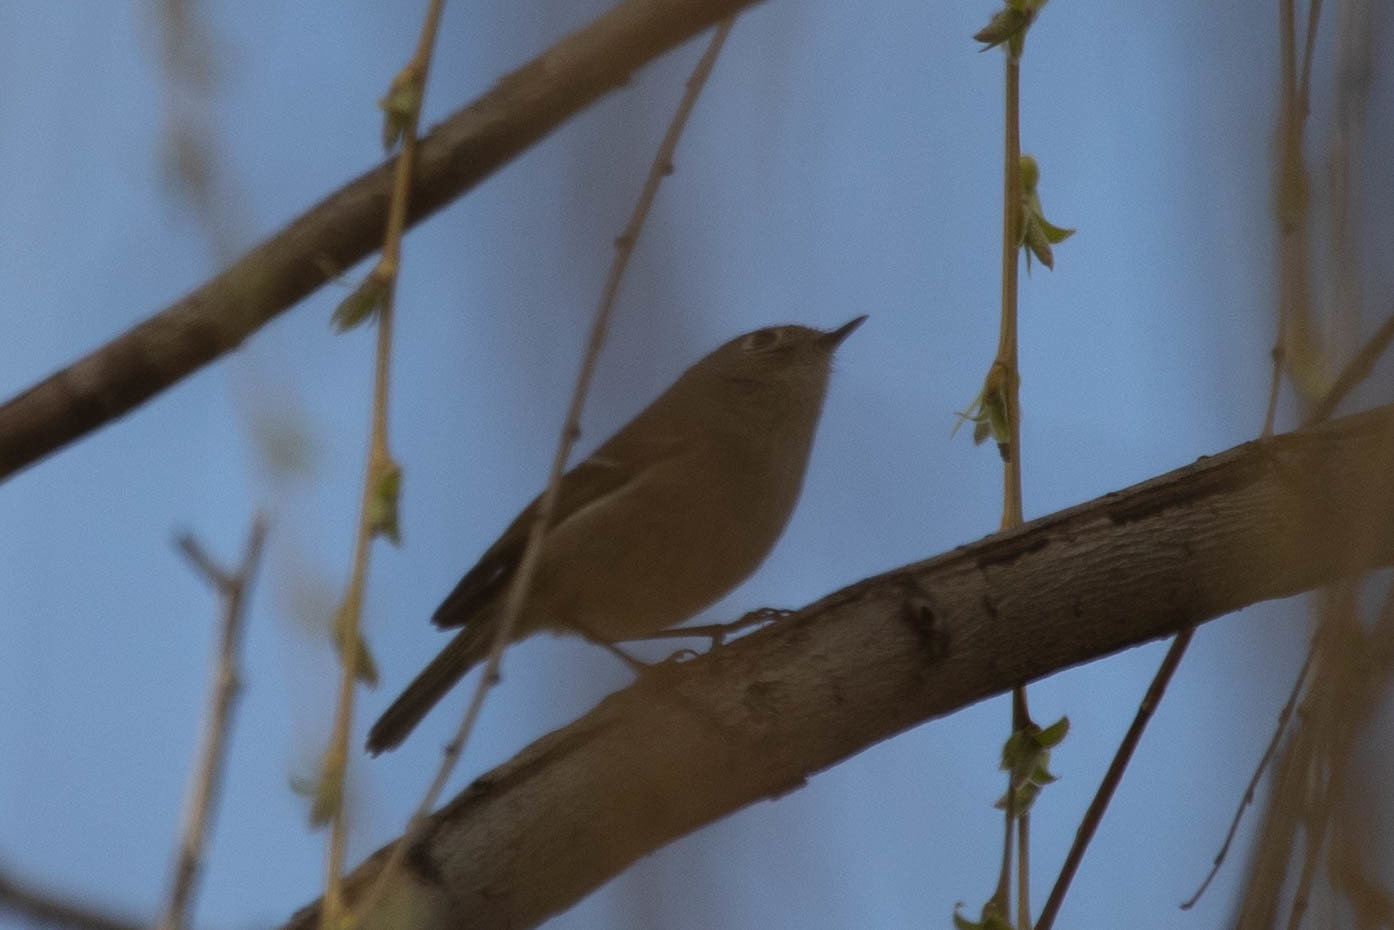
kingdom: Animalia
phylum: Chordata
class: Aves
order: Passeriformes
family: Regulidae
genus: Regulus
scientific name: Regulus calendula
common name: Ruby-crowned kinglet
